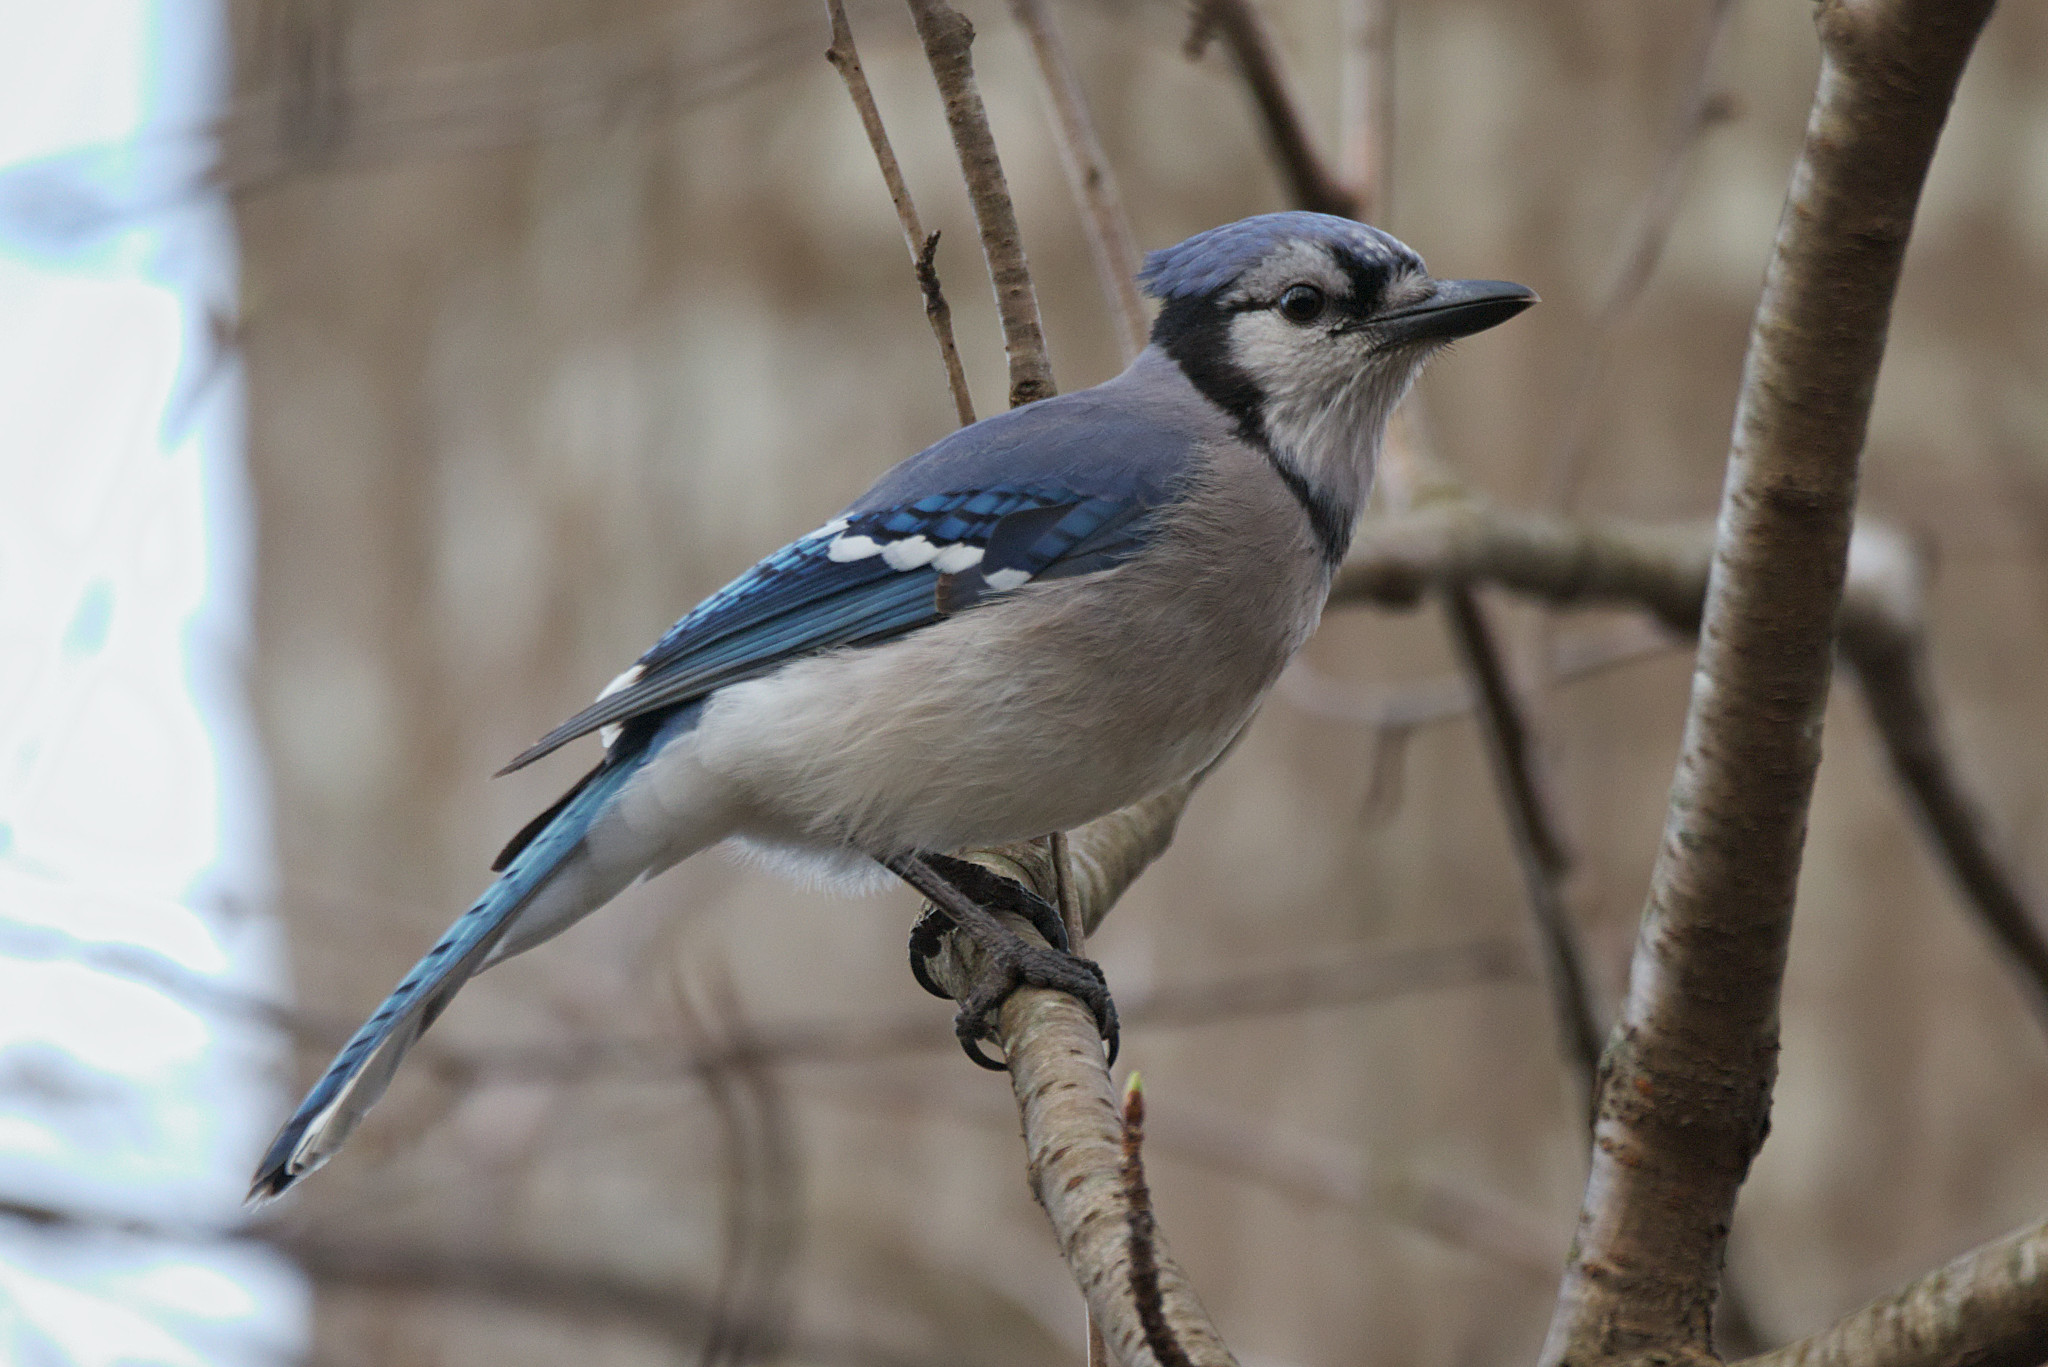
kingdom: Animalia
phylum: Chordata
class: Aves
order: Passeriformes
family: Corvidae
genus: Cyanocitta
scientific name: Cyanocitta cristata
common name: Blue jay
